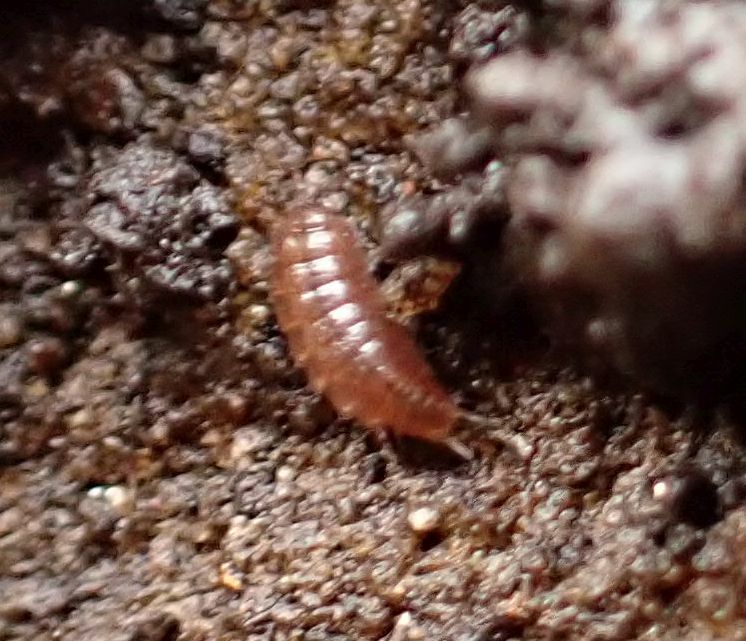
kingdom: Animalia
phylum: Arthropoda
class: Malacostraca
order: Isopoda
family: Trichoniscidae
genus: Trichoniscus
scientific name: Trichoniscus
